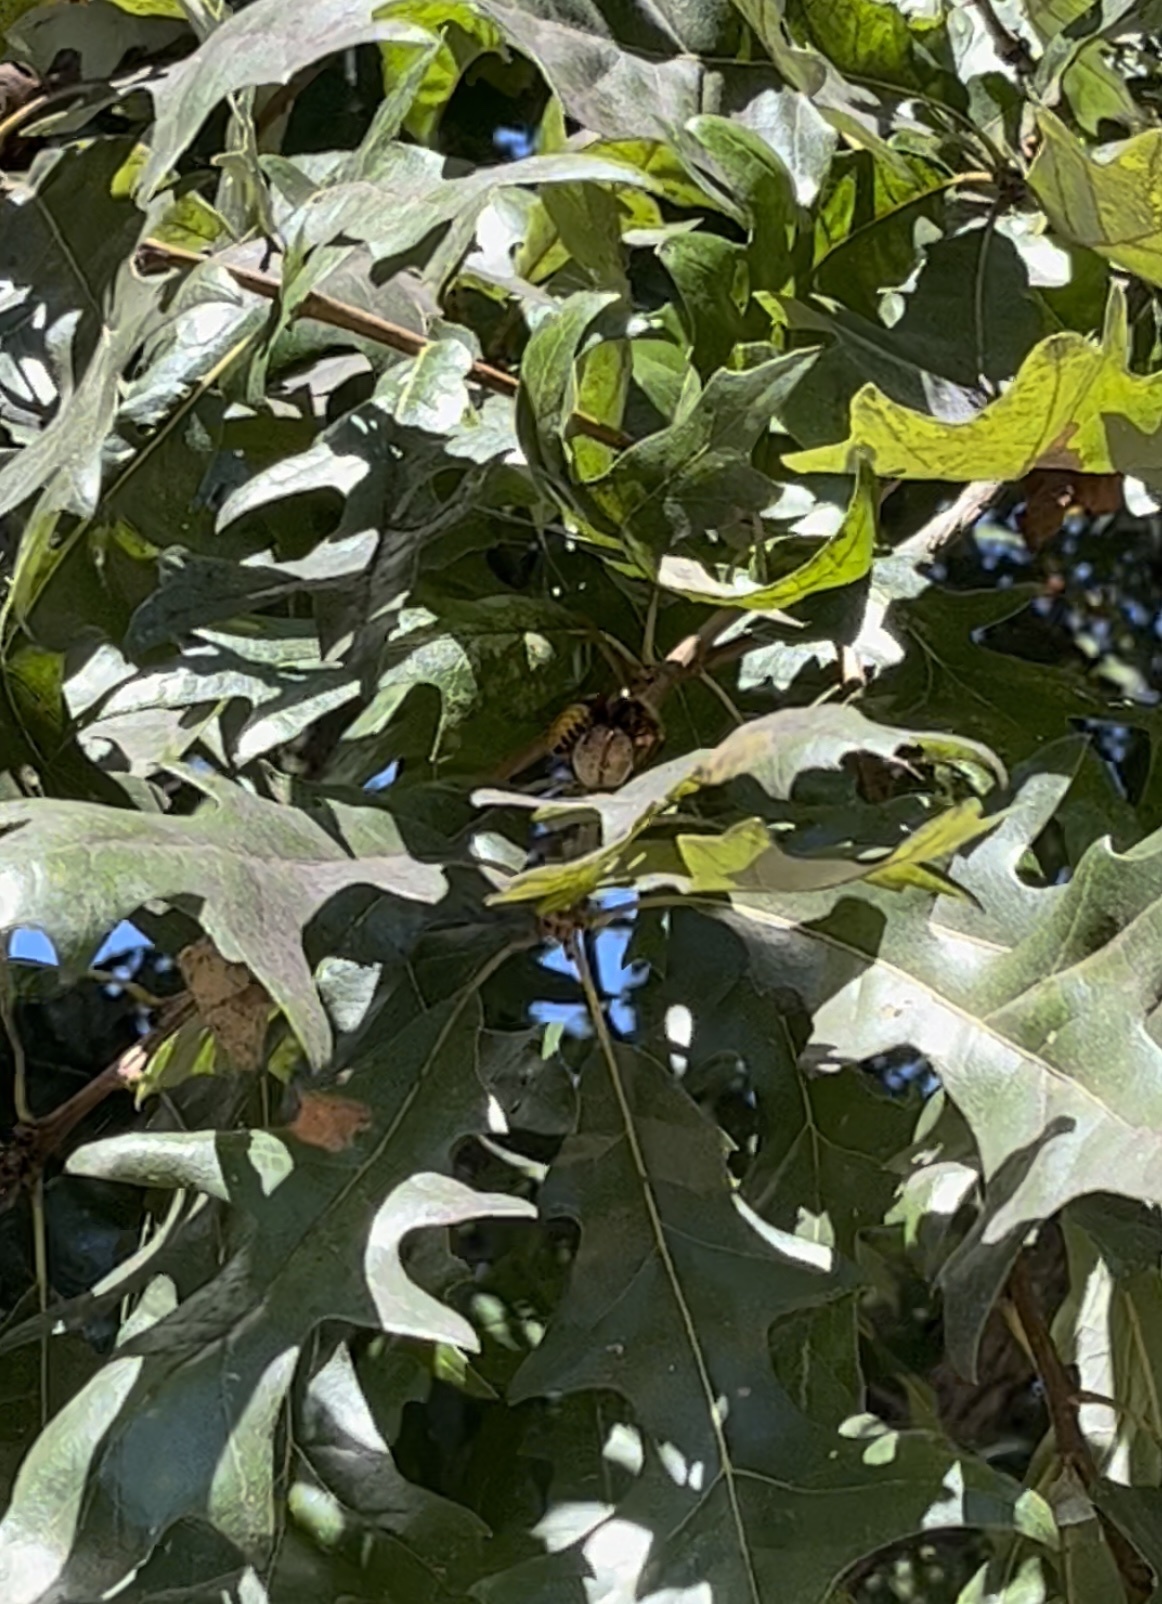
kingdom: Animalia
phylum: Arthropoda
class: Insecta
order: Hymenoptera
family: Vespidae
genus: Vespa
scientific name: Vespa crabro
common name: Hornet
